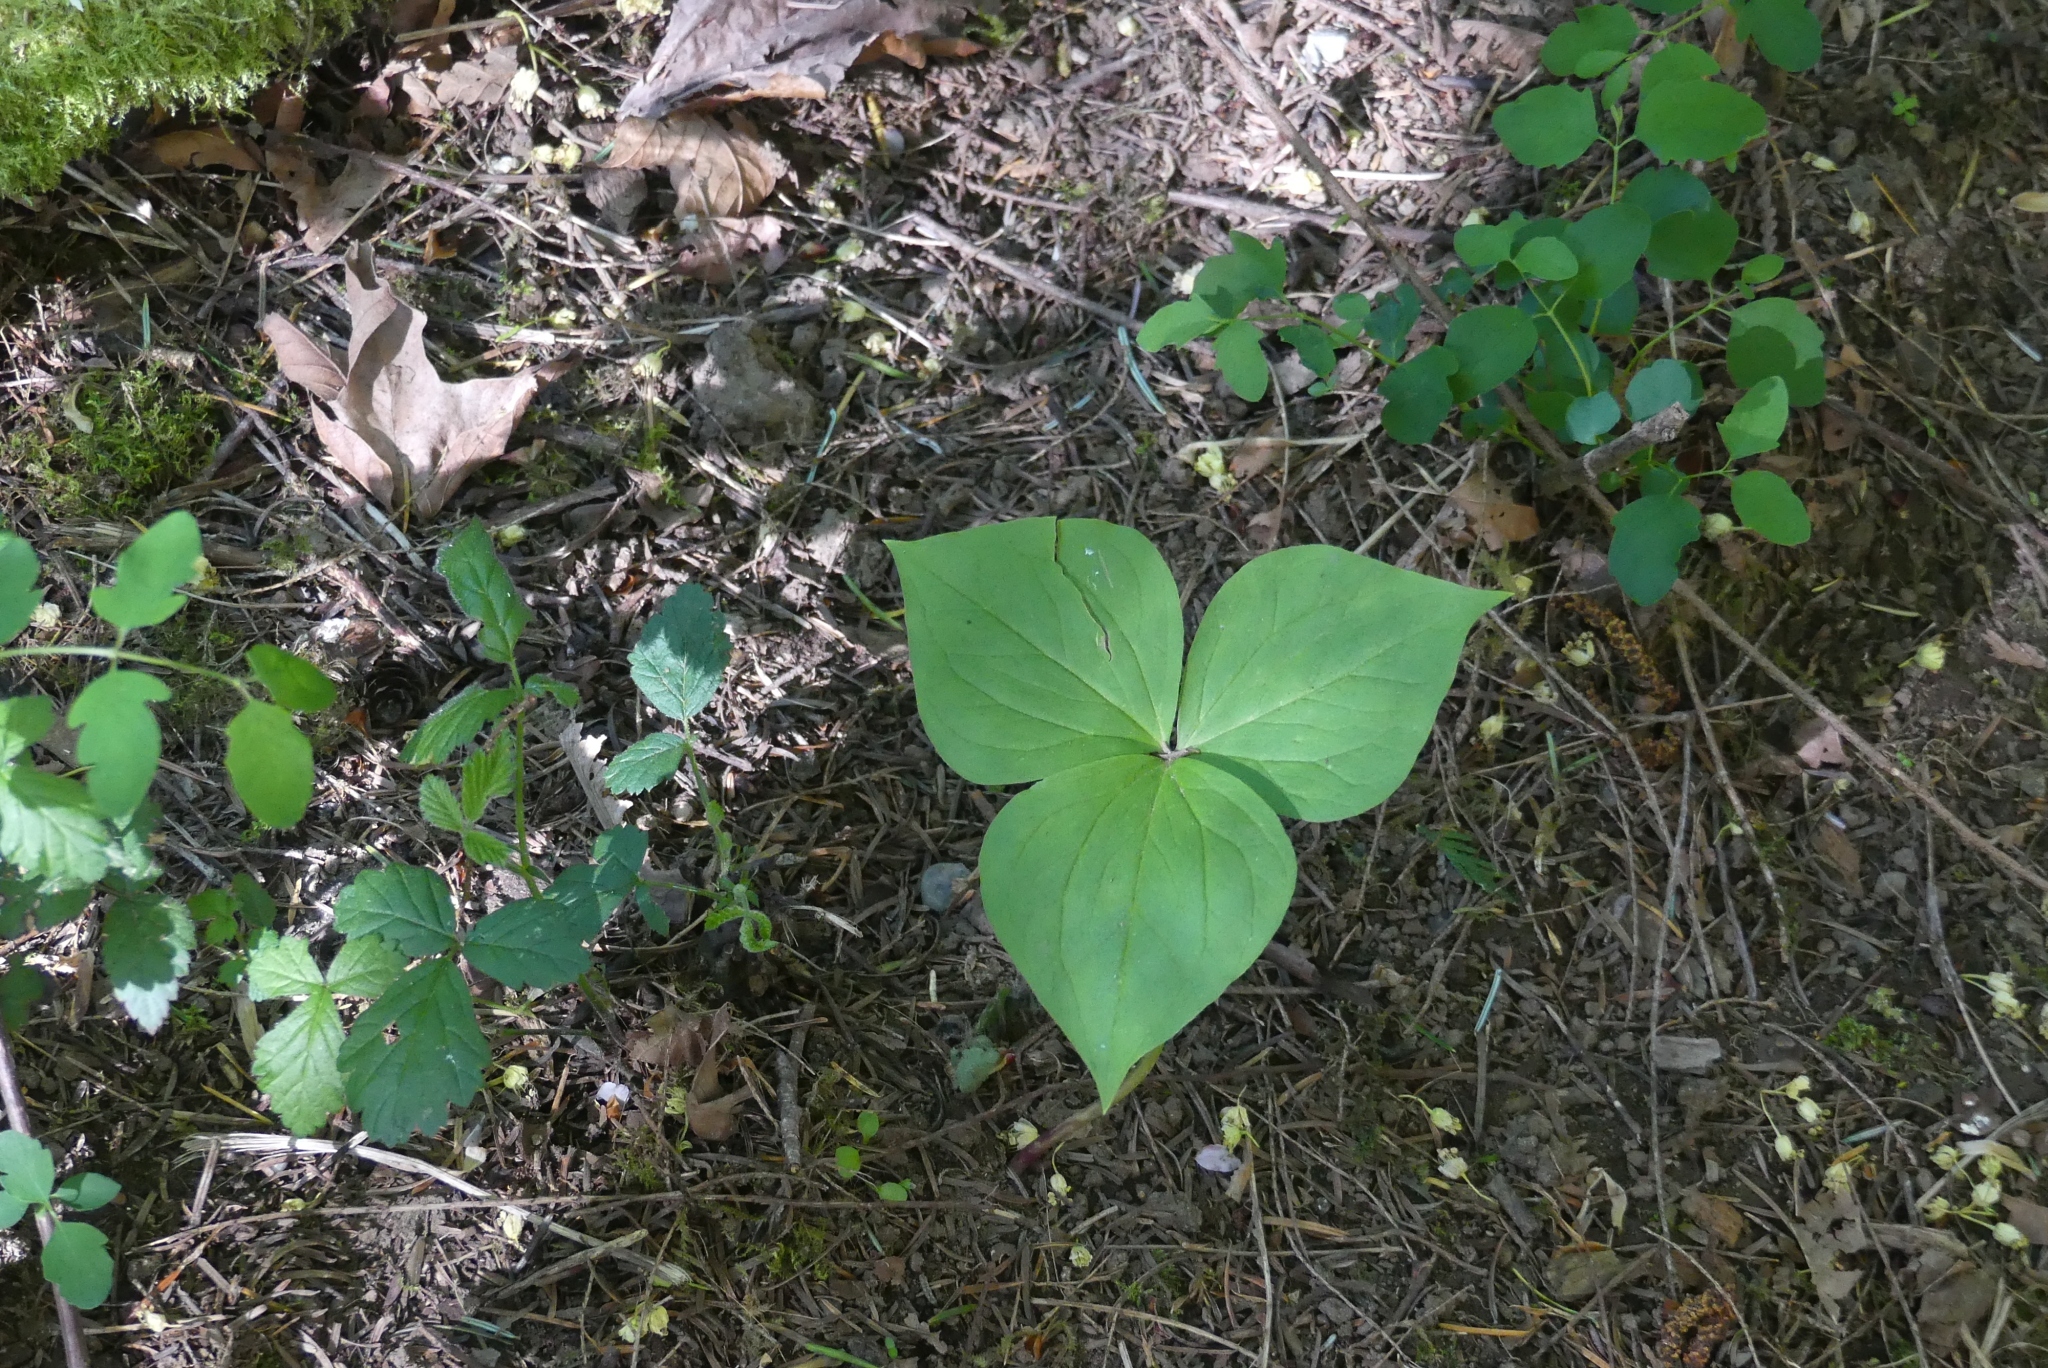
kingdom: Plantae
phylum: Tracheophyta
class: Liliopsida
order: Liliales
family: Melanthiaceae
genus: Trillium
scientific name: Trillium ovatum
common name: Pacific trillium
